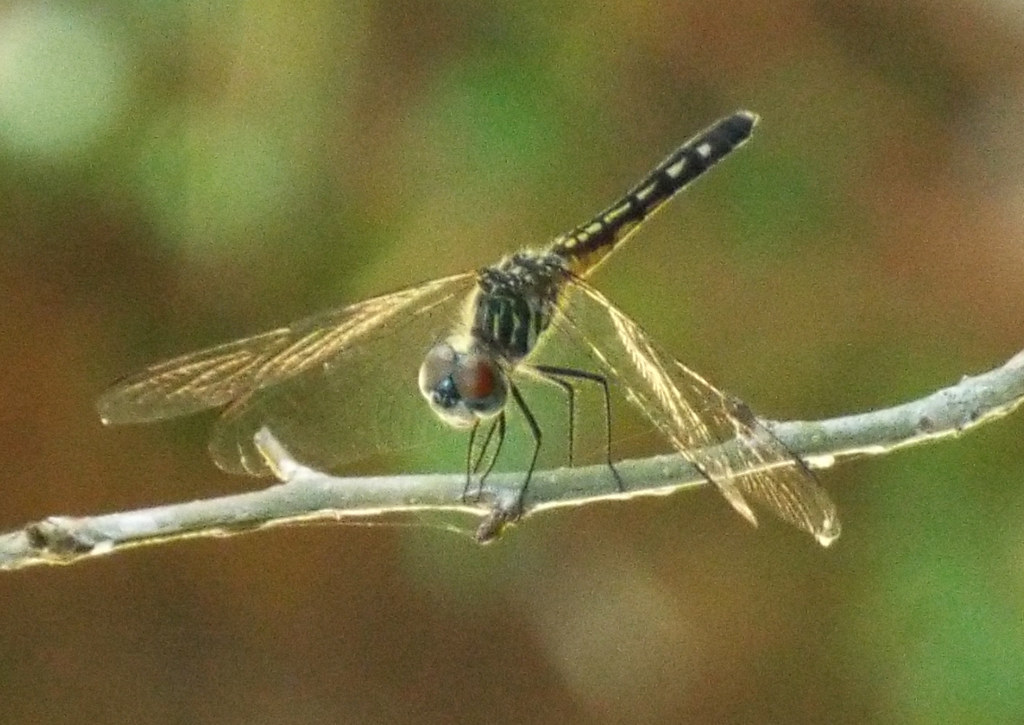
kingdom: Animalia
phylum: Arthropoda
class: Insecta
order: Odonata
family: Libellulidae
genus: Pachydiplax
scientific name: Pachydiplax longipennis
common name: Blue dasher
